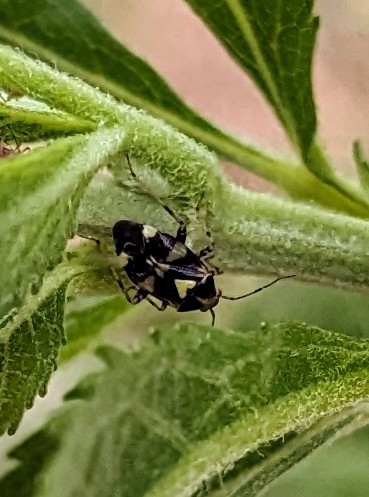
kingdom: Animalia
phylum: Arthropoda
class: Insecta
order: Hemiptera
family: Miridae
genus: Liocoris
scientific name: Liocoris tripustulatus
